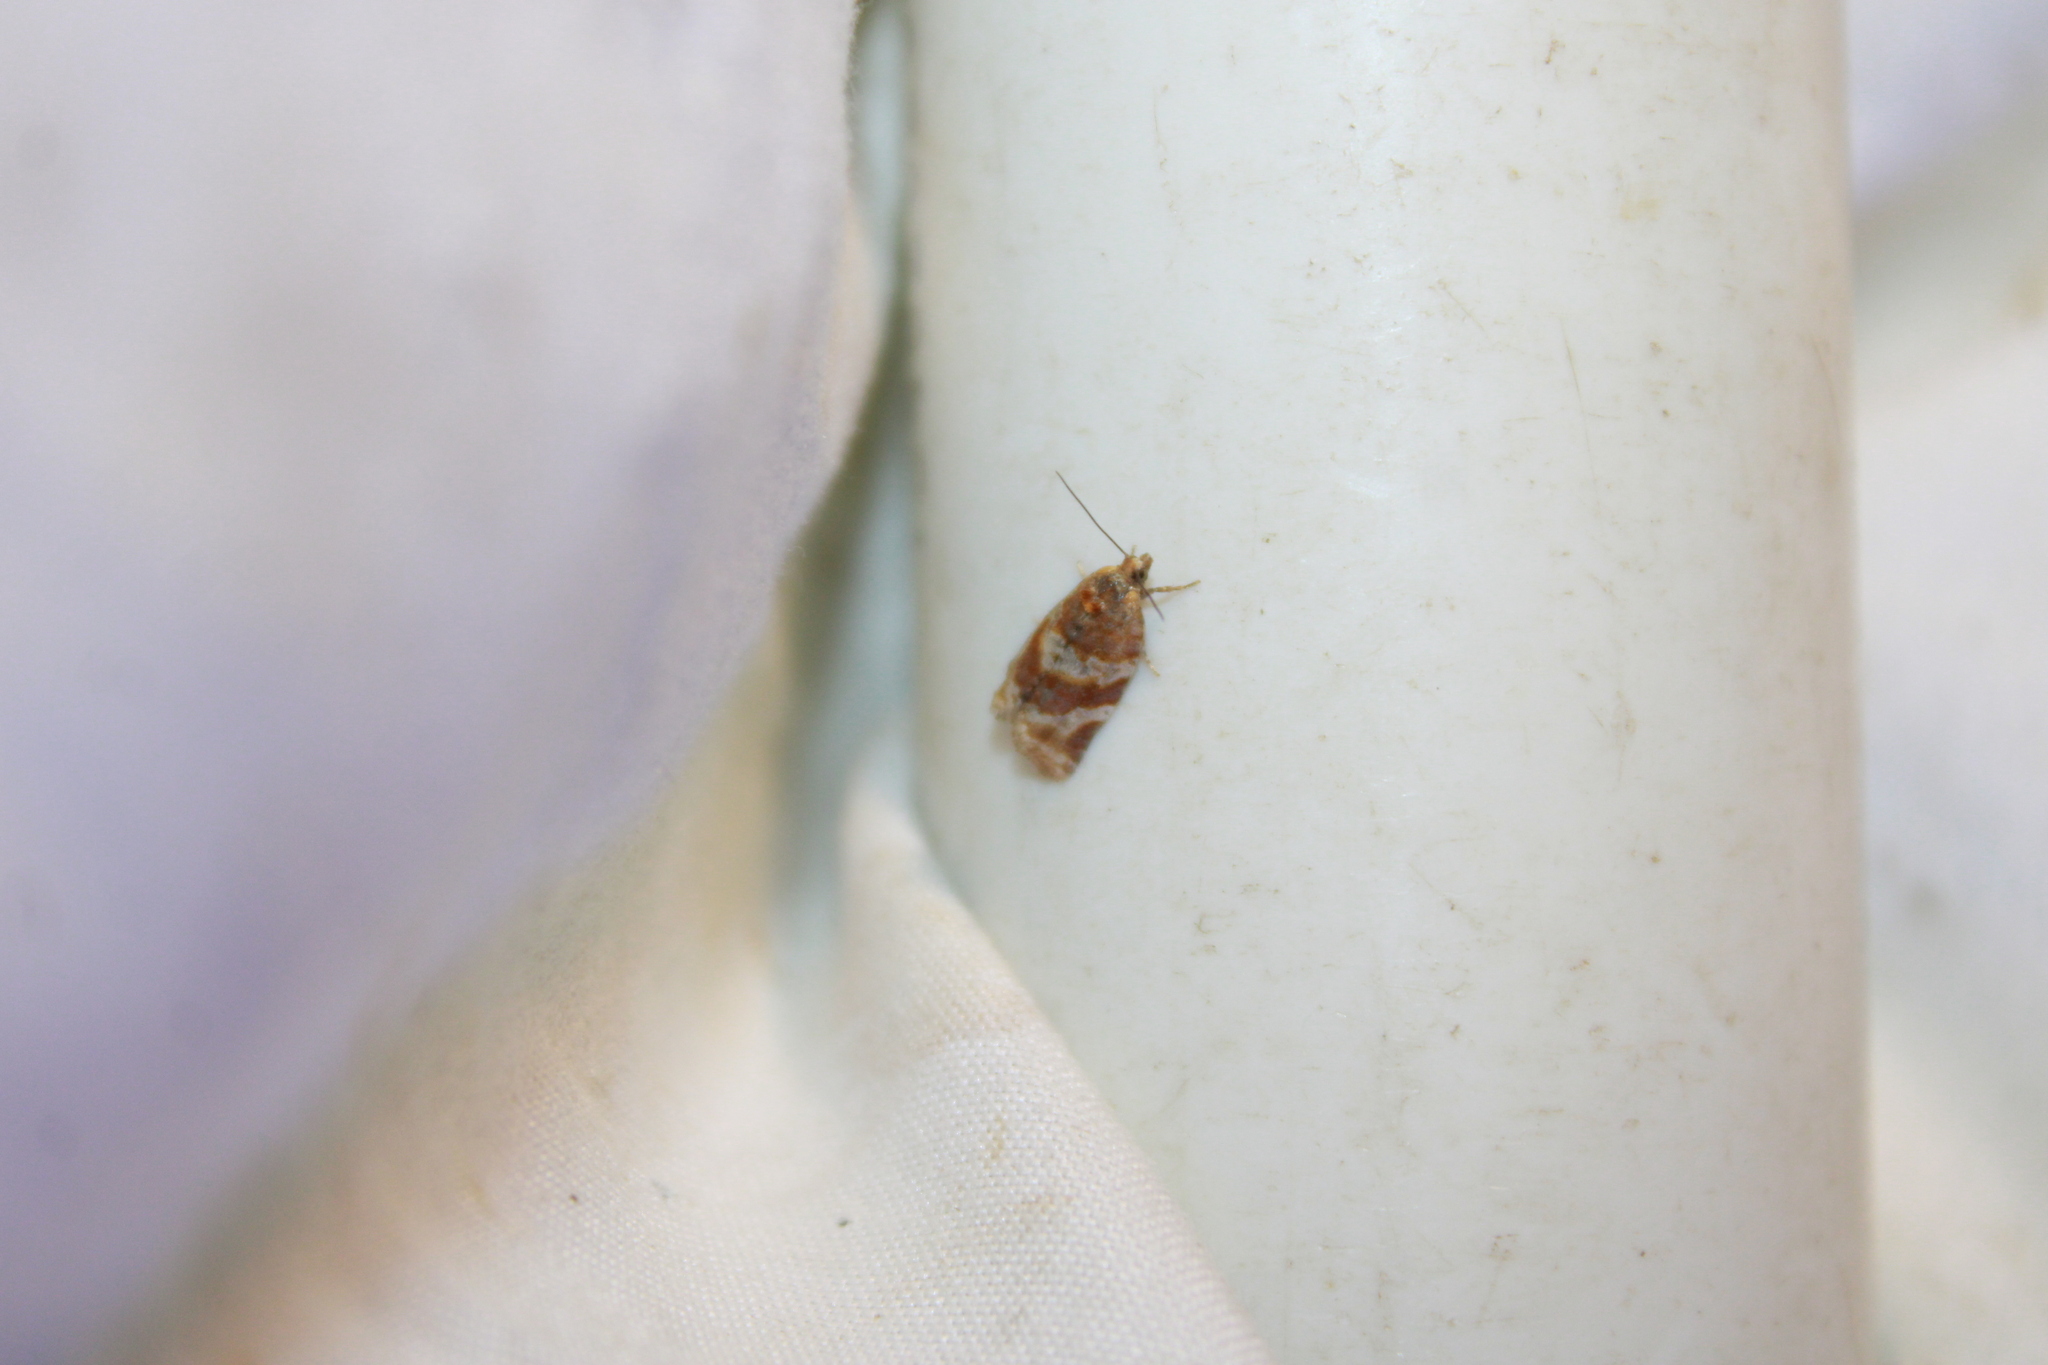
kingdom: Animalia
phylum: Arthropoda
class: Insecta
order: Lepidoptera
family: Tortricidae
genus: Argyrotaenia
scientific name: Argyrotaenia pinatubana
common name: Pine tube moth
